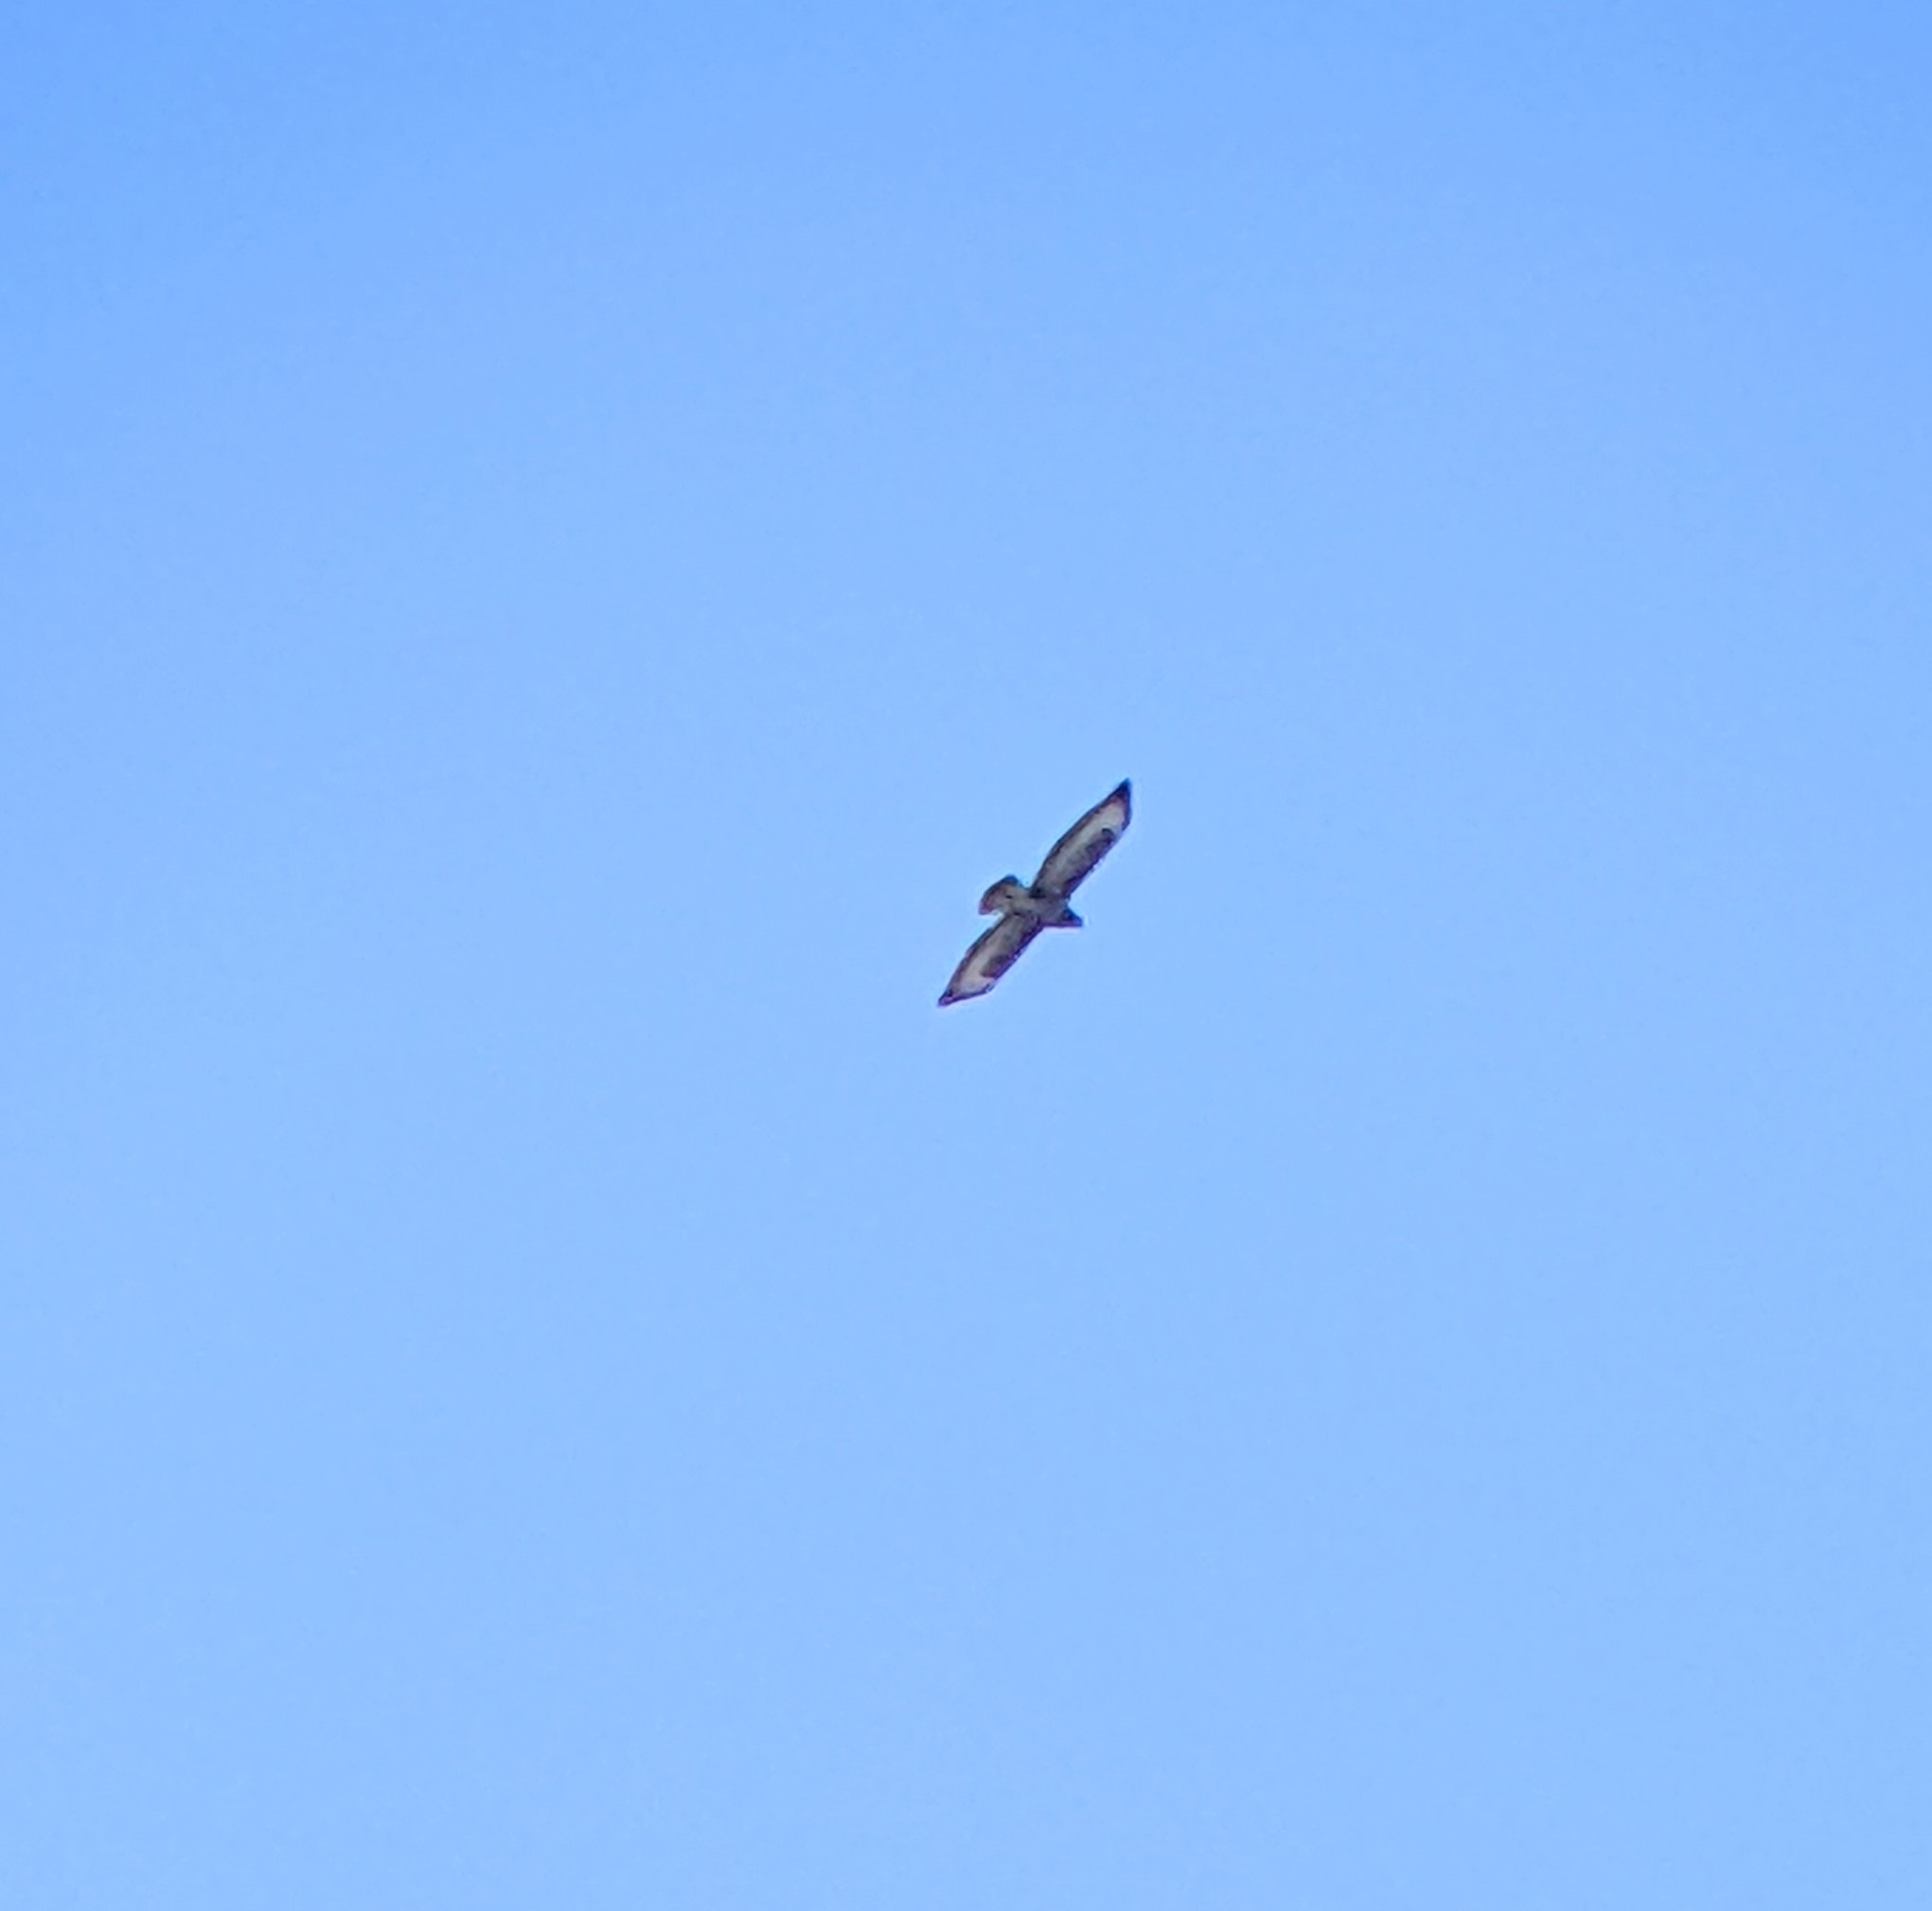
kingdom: Animalia
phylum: Chordata
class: Aves
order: Accipitriformes
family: Accipitridae
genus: Buteo
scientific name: Buteo buteo
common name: Common buzzard
